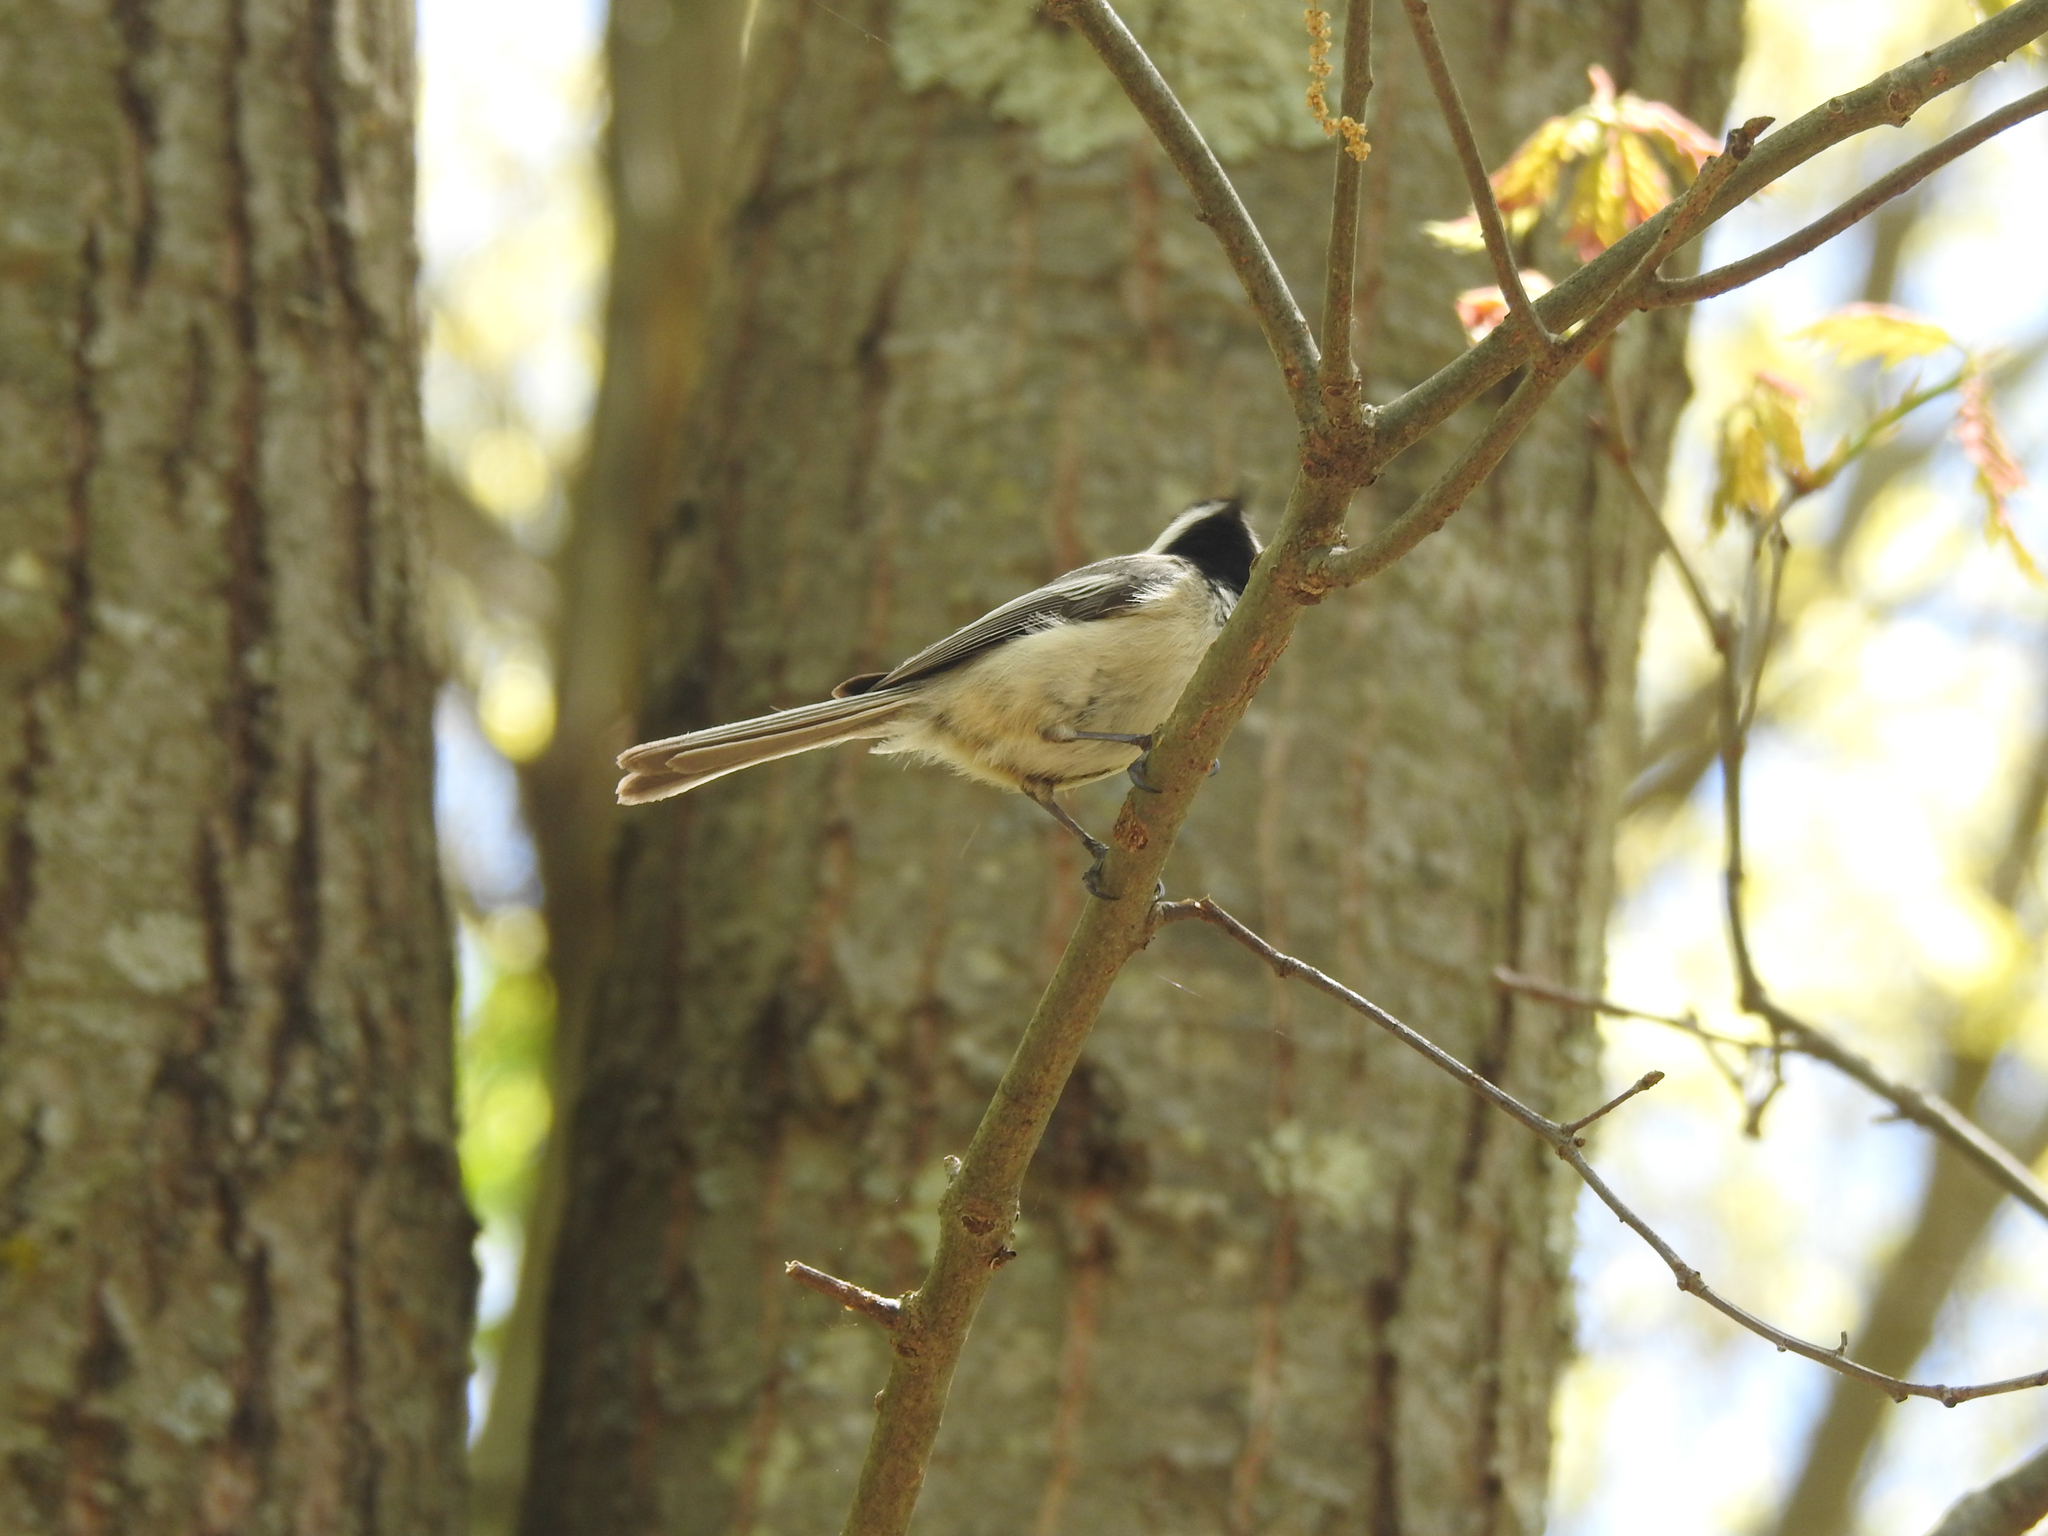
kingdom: Animalia
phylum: Chordata
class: Aves
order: Passeriformes
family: Paridae
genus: Poecile
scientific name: Poecile atricapillus
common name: Black-capped chickadee
